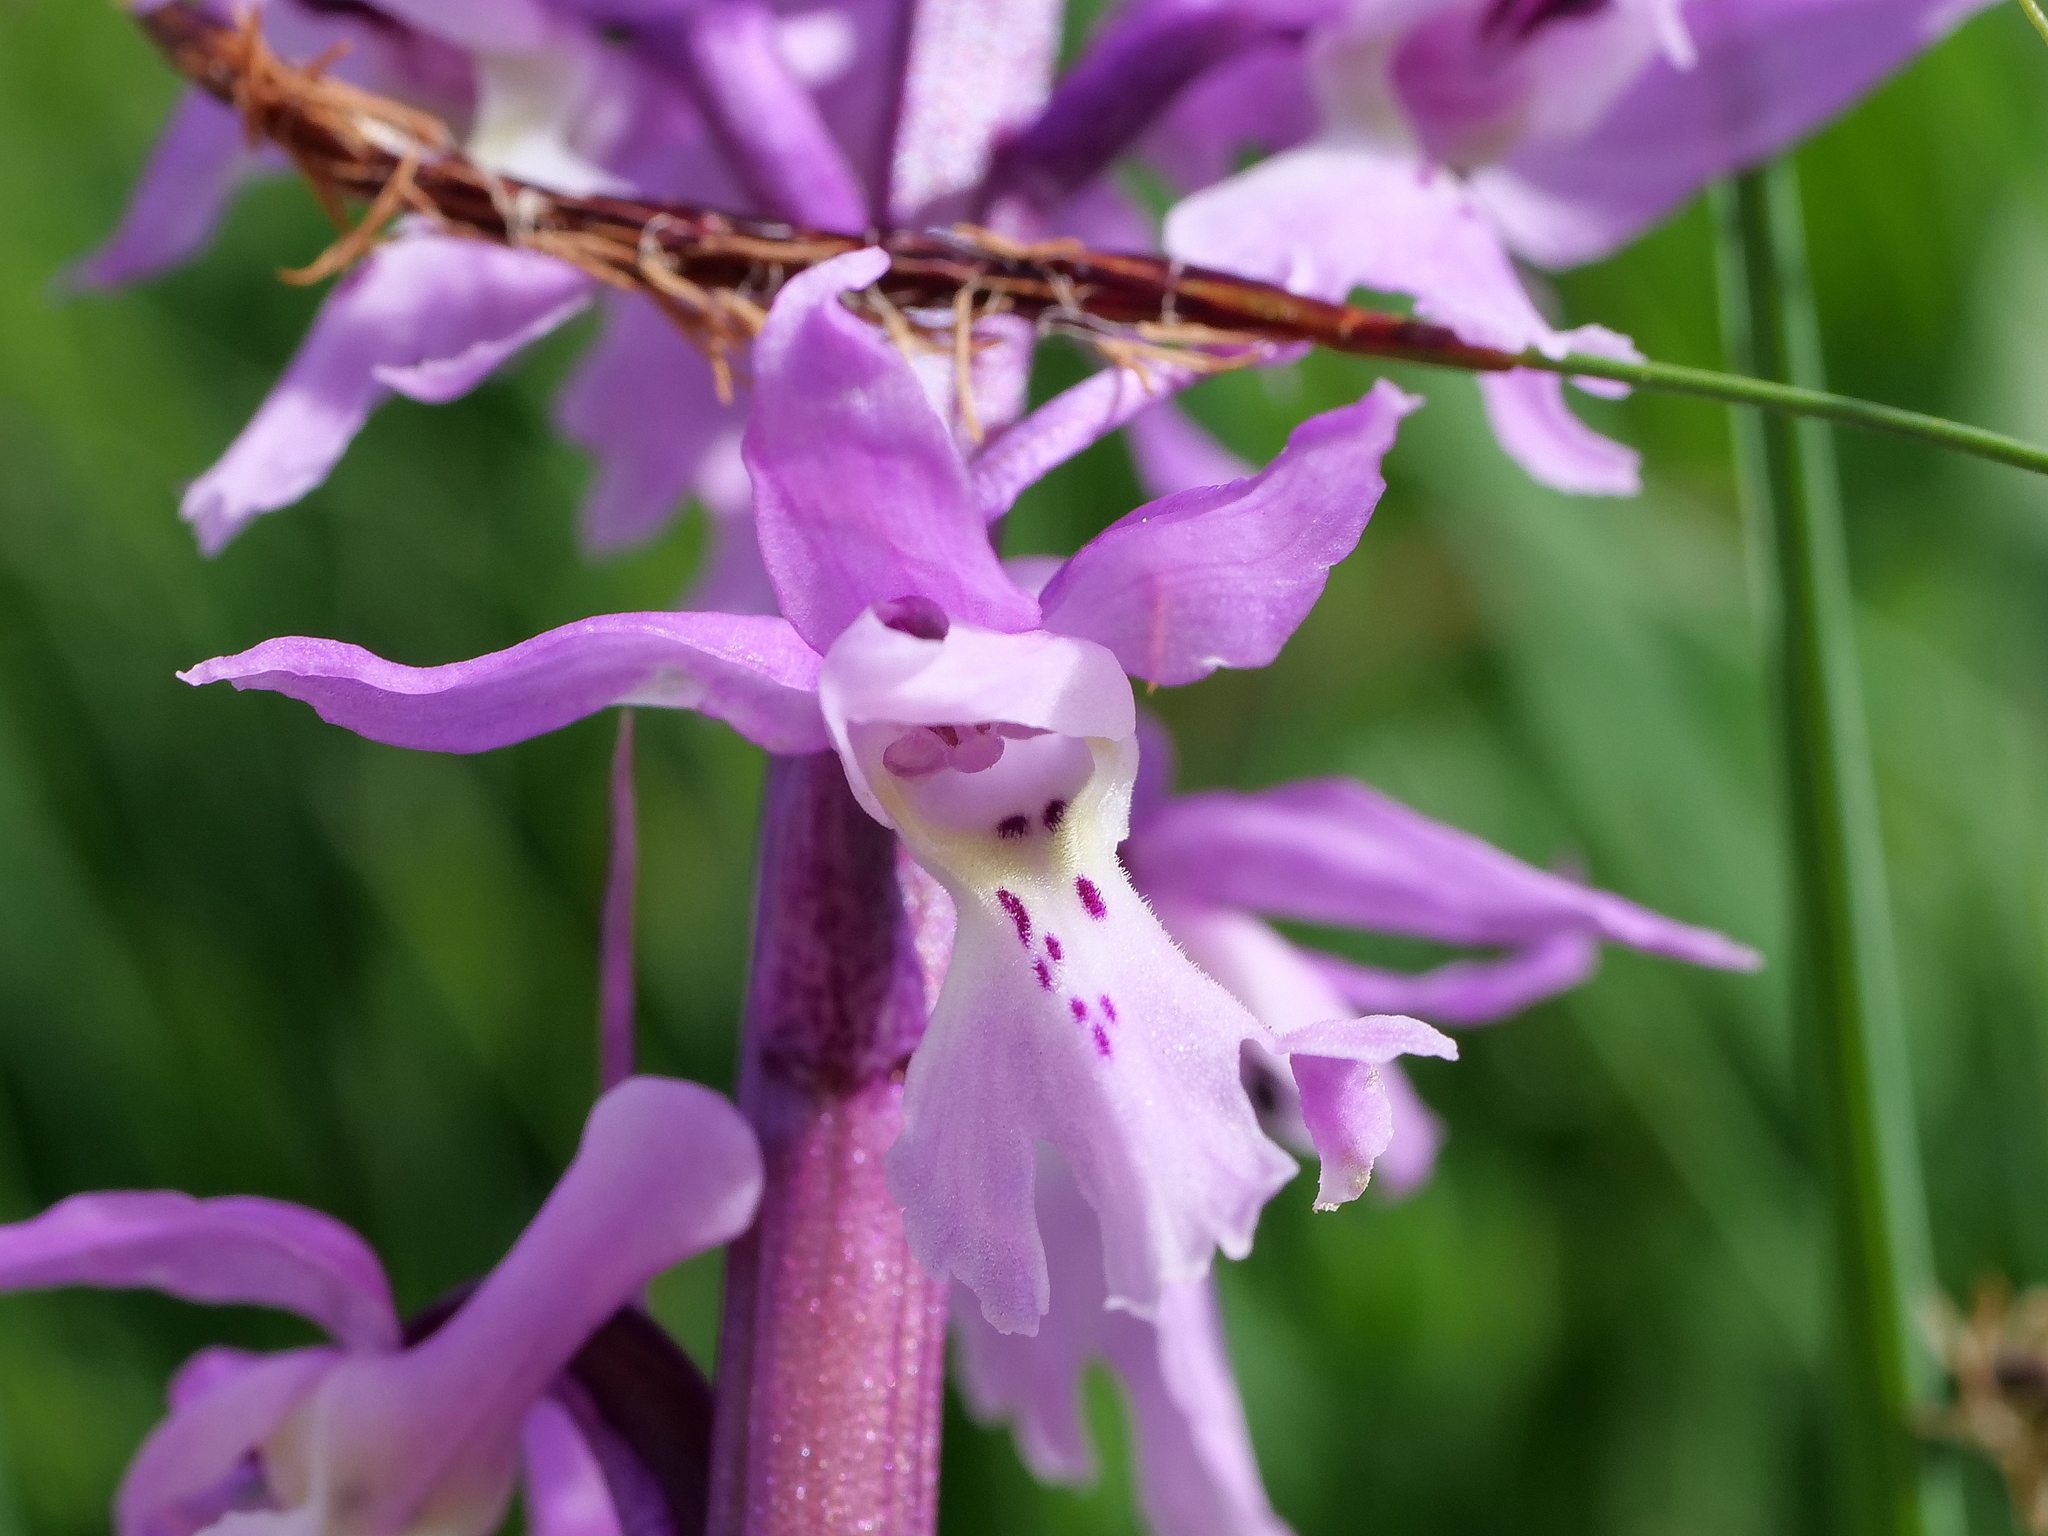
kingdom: Plantae
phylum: Tracheophyta
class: Liliopsida
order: Asparagales
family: Orchidaceae
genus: Orchis
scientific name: Orchis mascula
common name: Early-purple orchid
